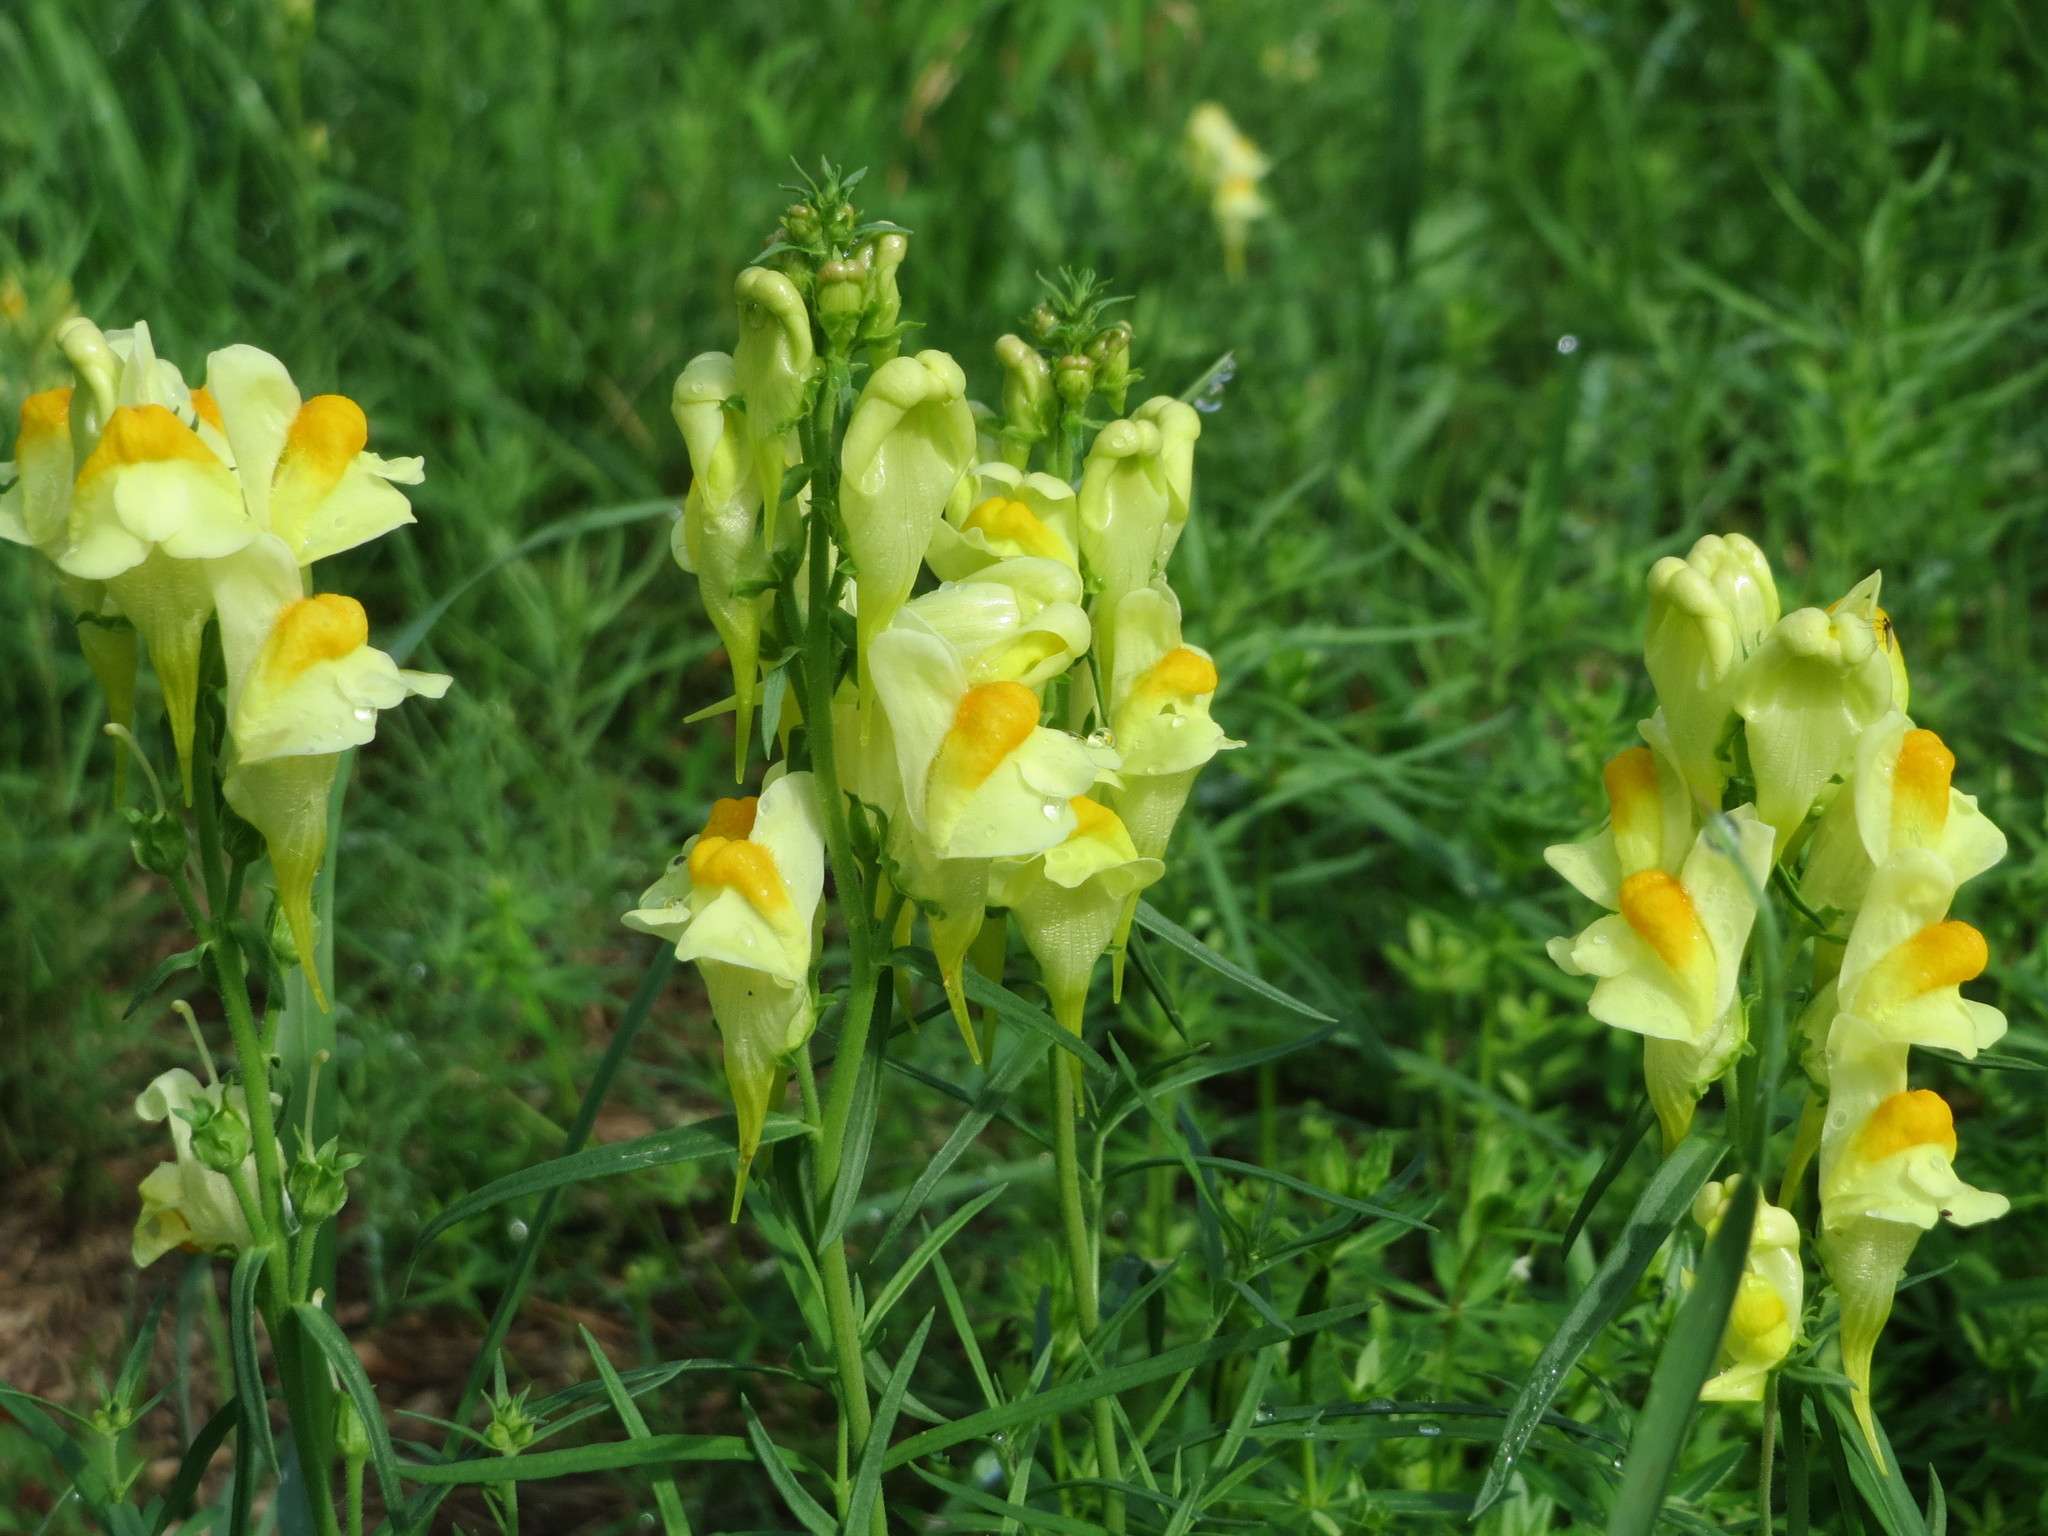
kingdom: Plantae
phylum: Tracheophyta
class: Magnoliopsida
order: Lamiales
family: Plantaginaceae
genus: Linaria
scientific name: Linaria vulgaris
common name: Butter and eggs
